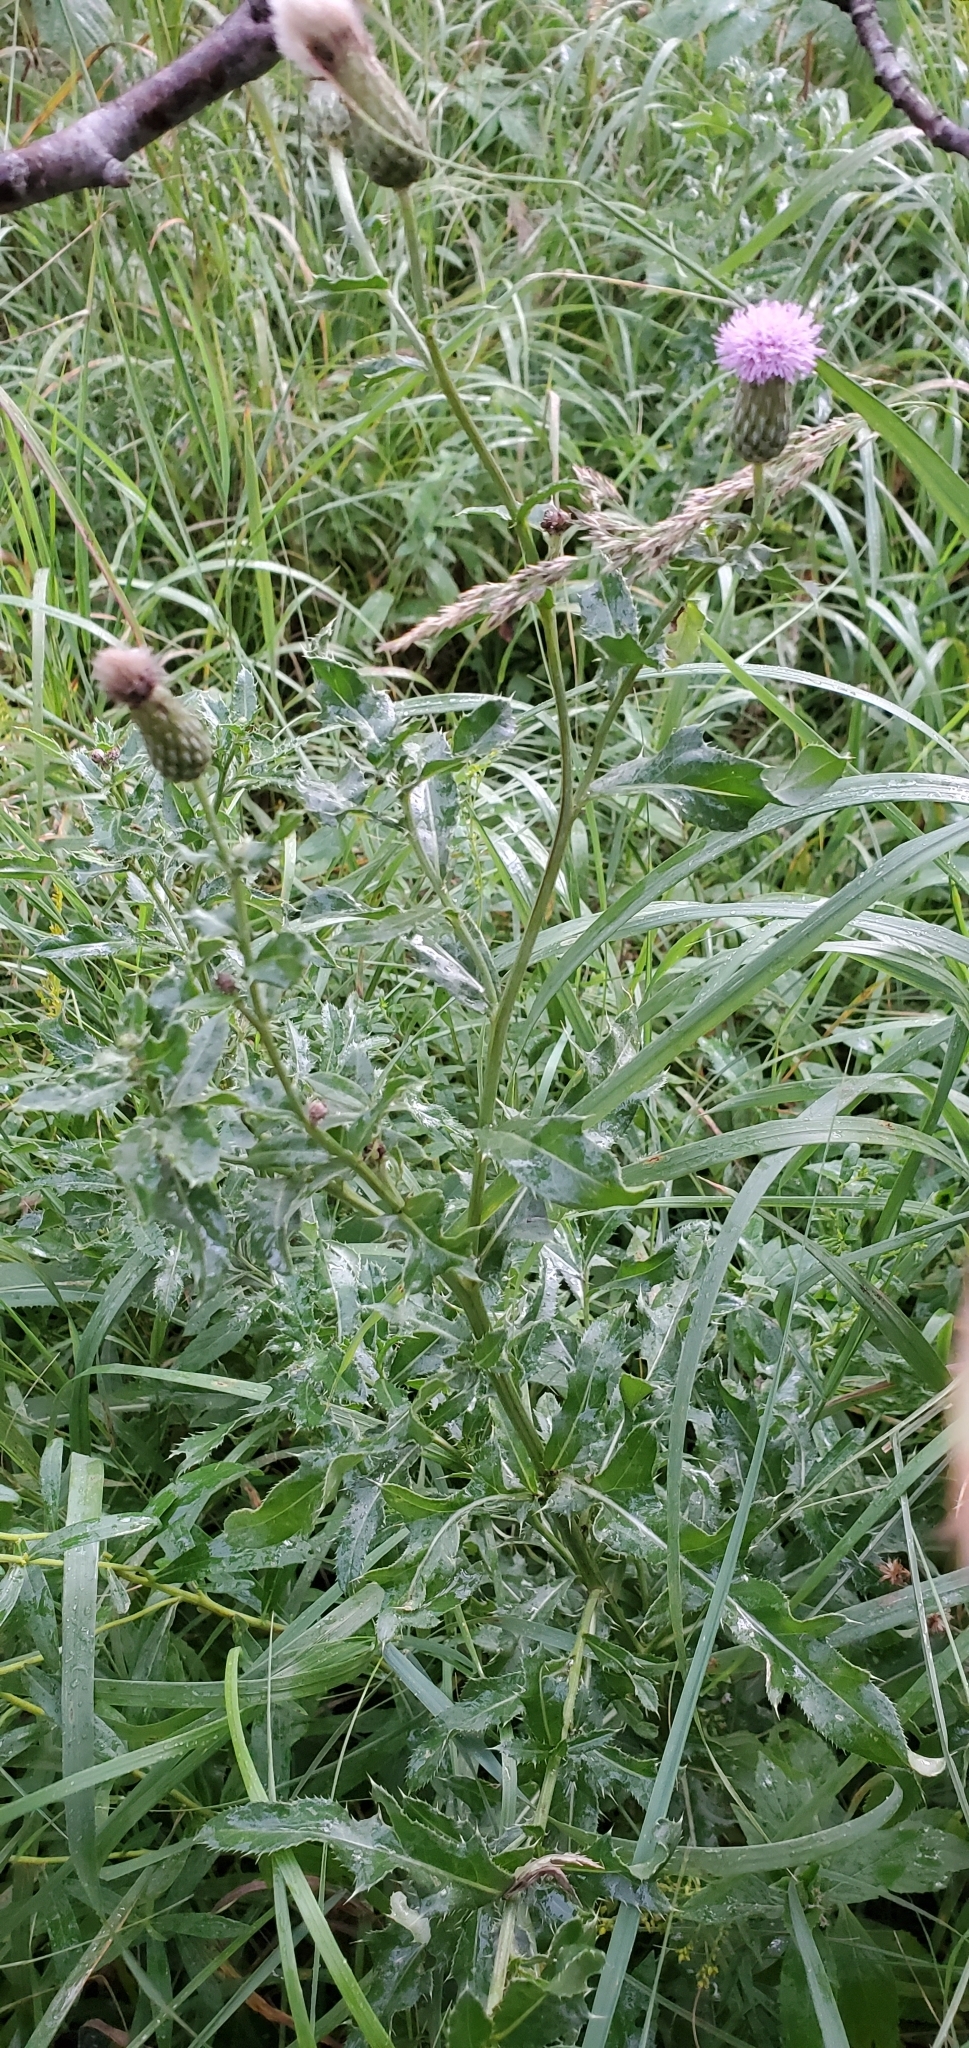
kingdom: Plantae
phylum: Tracheophyta
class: Magnoliopsida
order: Asterales
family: Asteraceae
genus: Cirsium
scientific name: Cirsium arvense
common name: Creeping thistle
